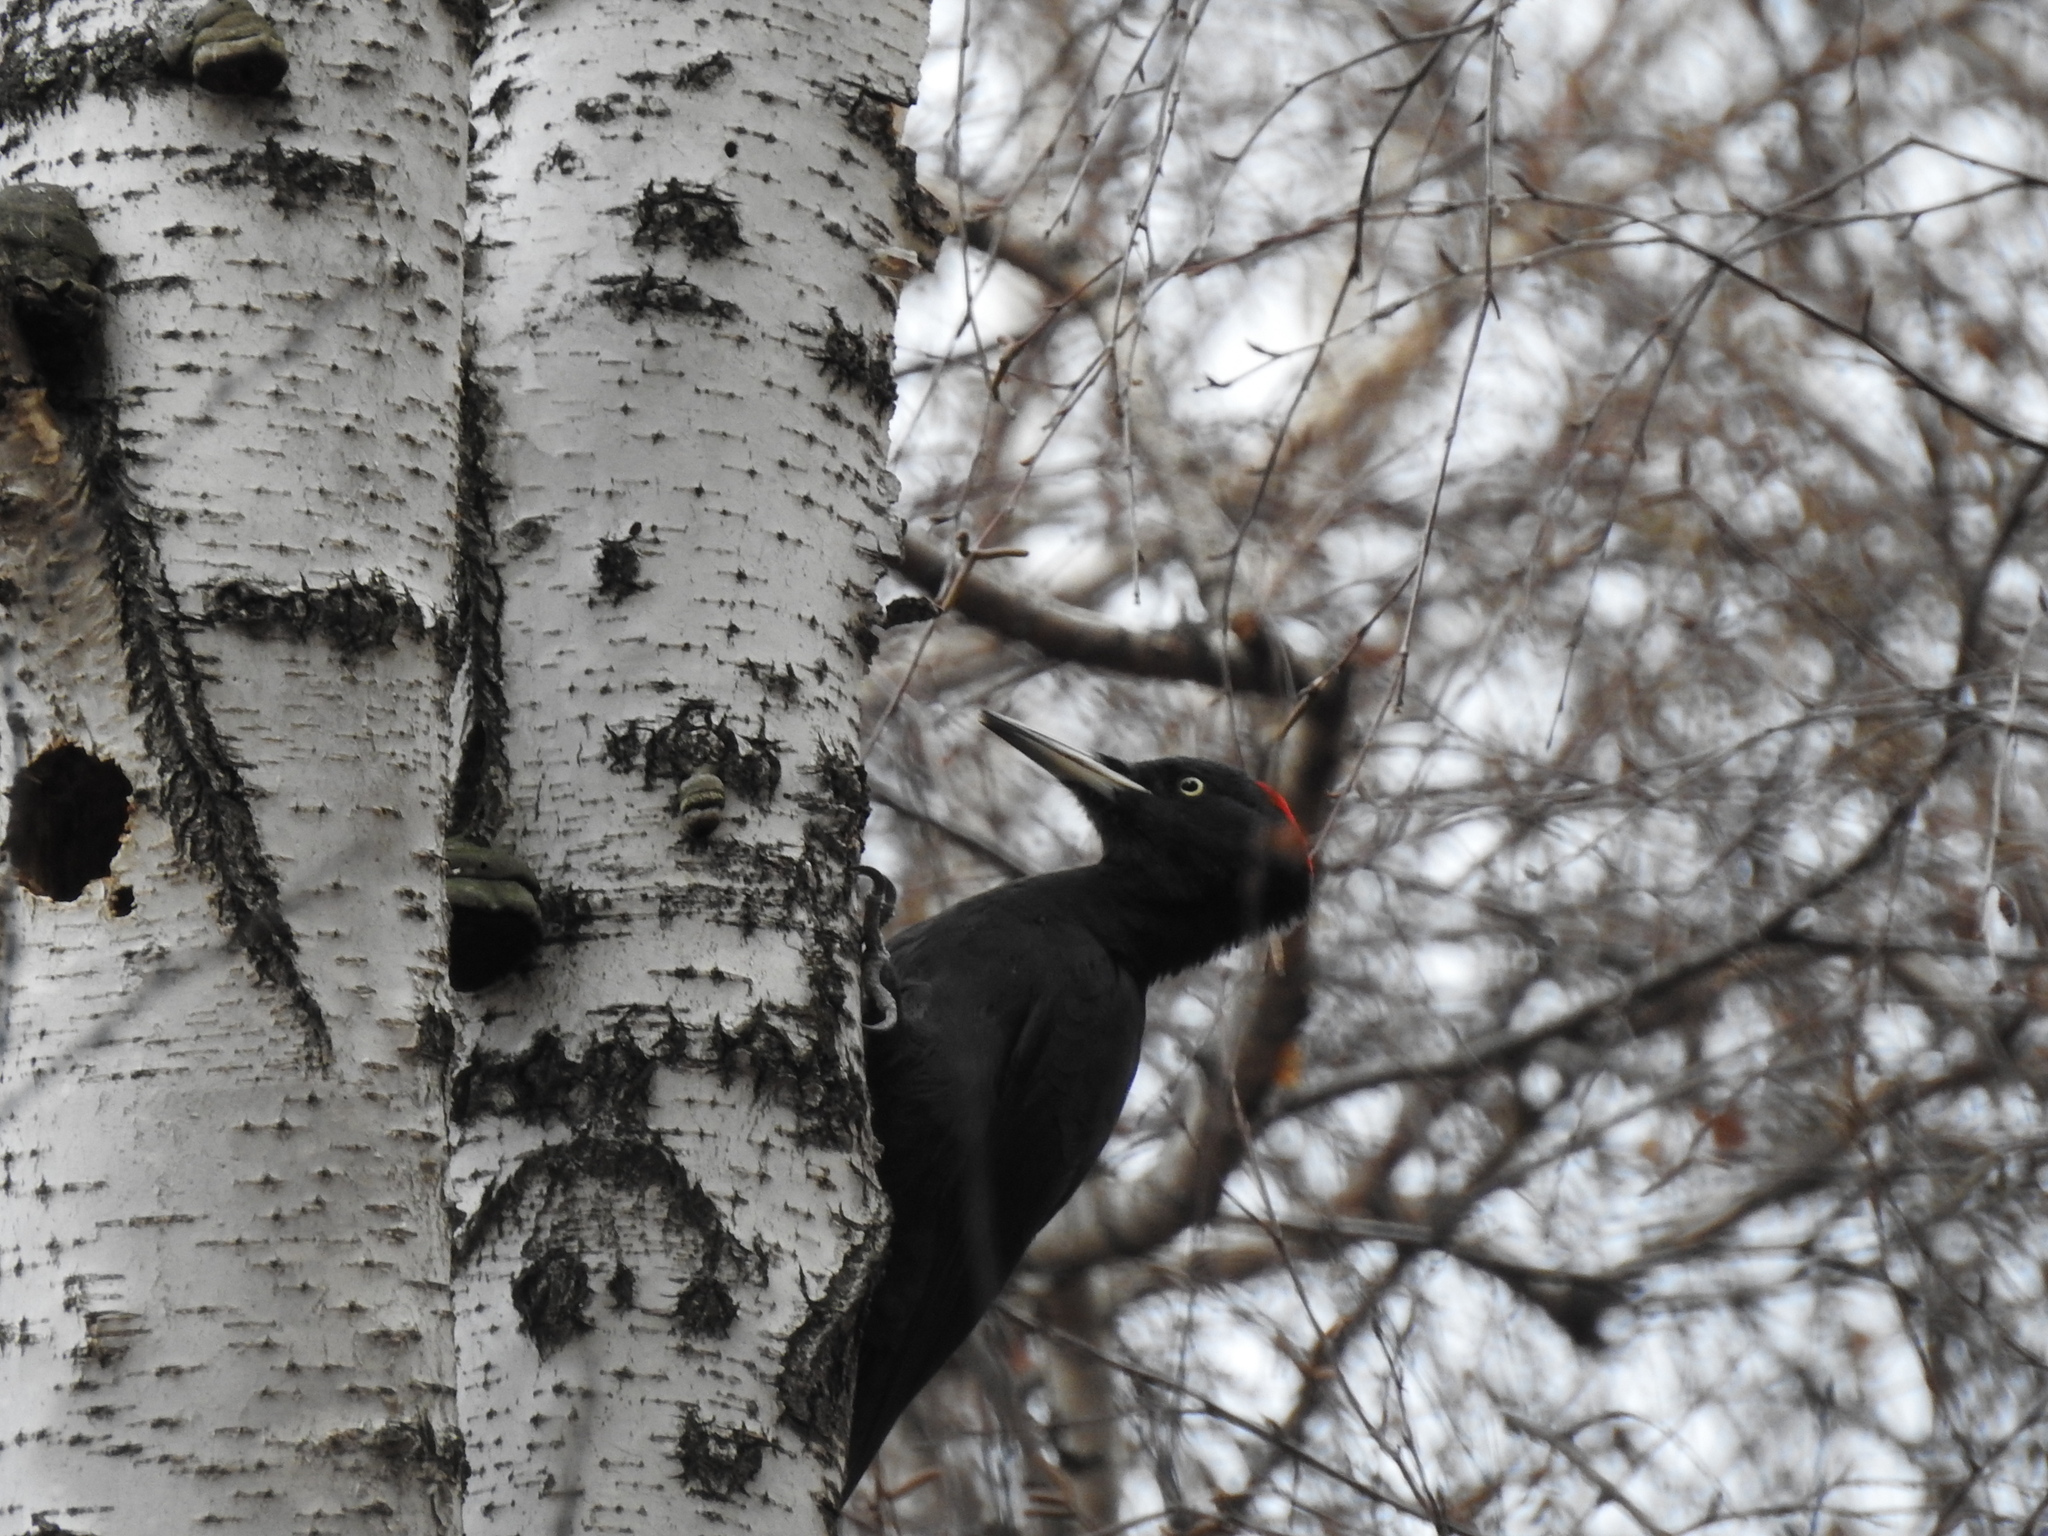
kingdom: Animalia
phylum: Chordata
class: Aves
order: Piciformes
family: Picidae
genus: Dryocopus
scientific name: Dryocopus martius
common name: Black woodpecker
